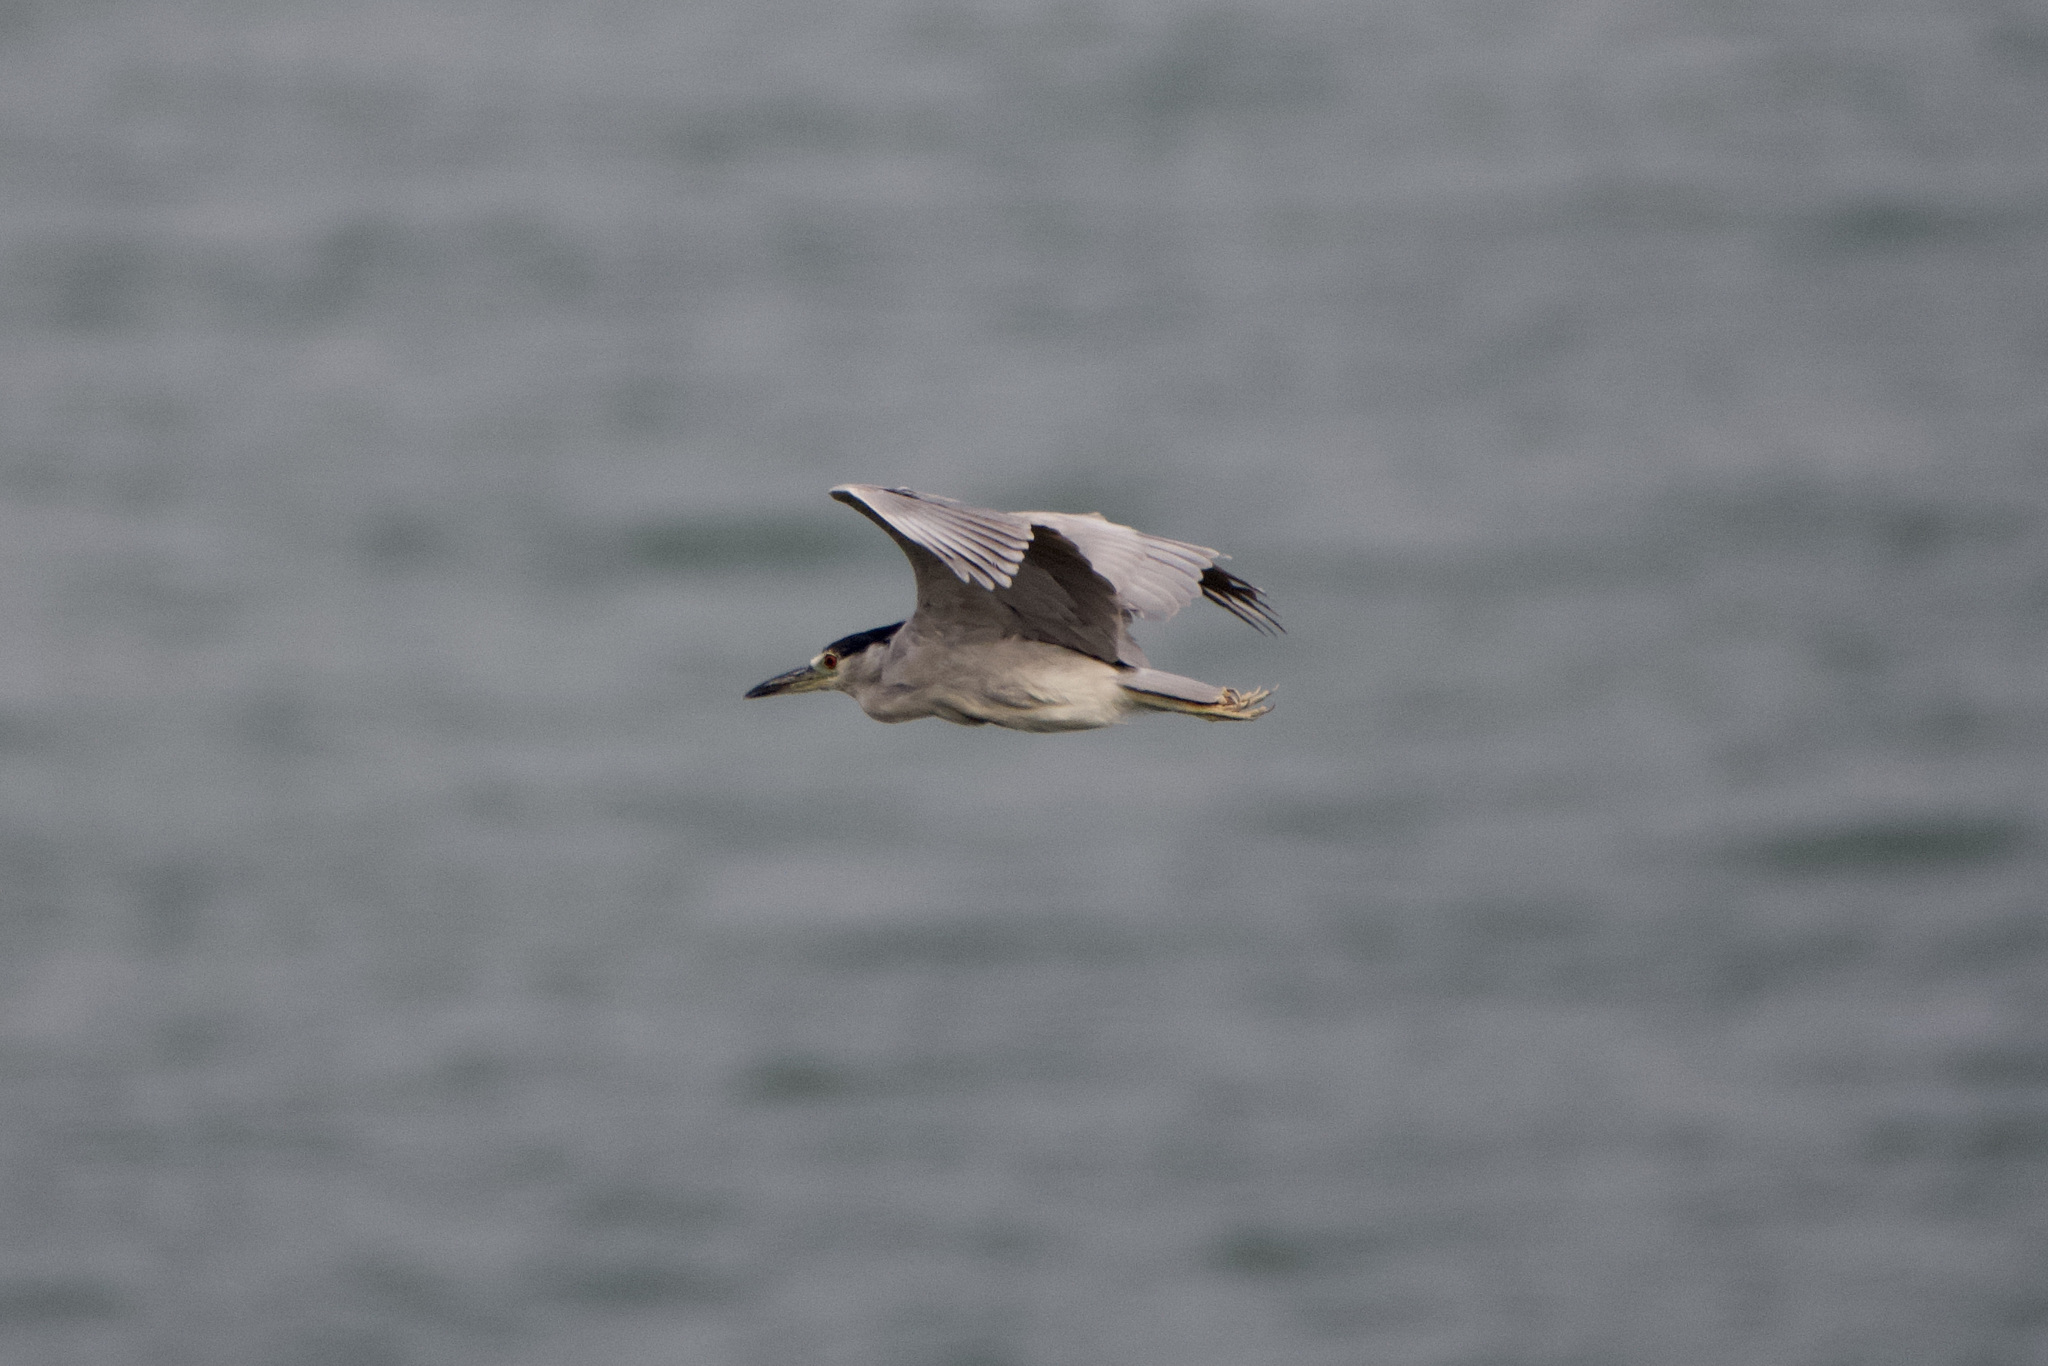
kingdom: Animalia
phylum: Chordata
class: Aves
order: Pelecaniformes
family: Ardeidae
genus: Nycticorax
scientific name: Nycticorax nycticorax
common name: Black-crowned night heron
